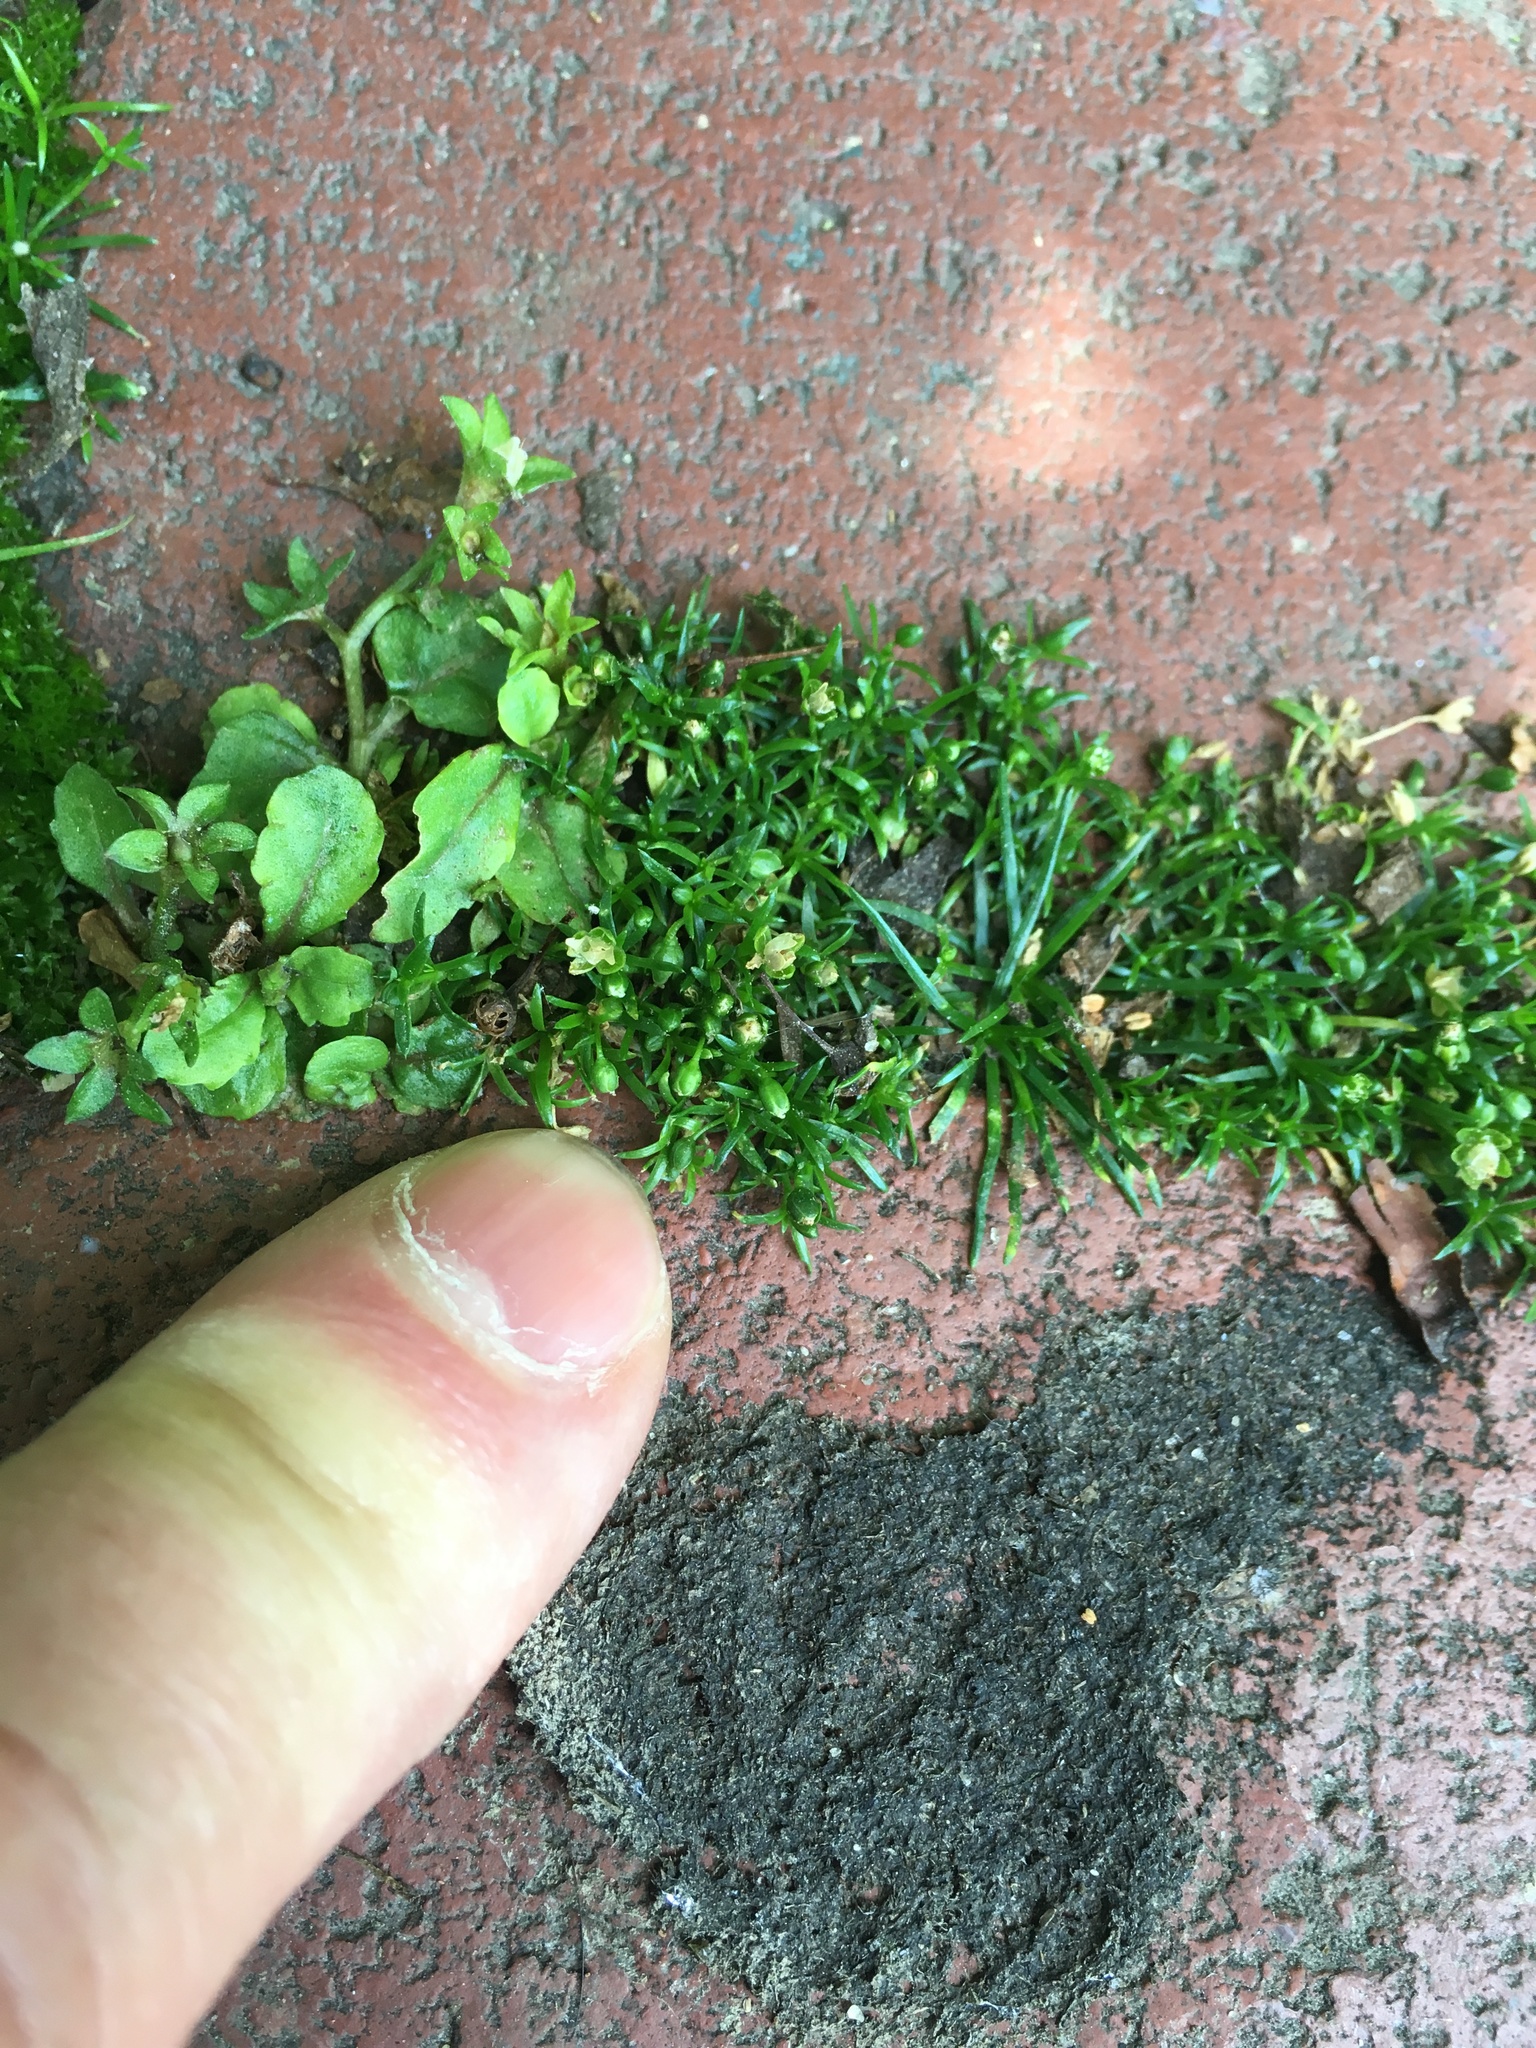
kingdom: Plantae
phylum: Tracheophyta
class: Magnoliopsida
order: Caryophyllales
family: Caryophyllaceae
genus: Sagina
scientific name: Sagina procumbens
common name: Procumbent pearlwort
